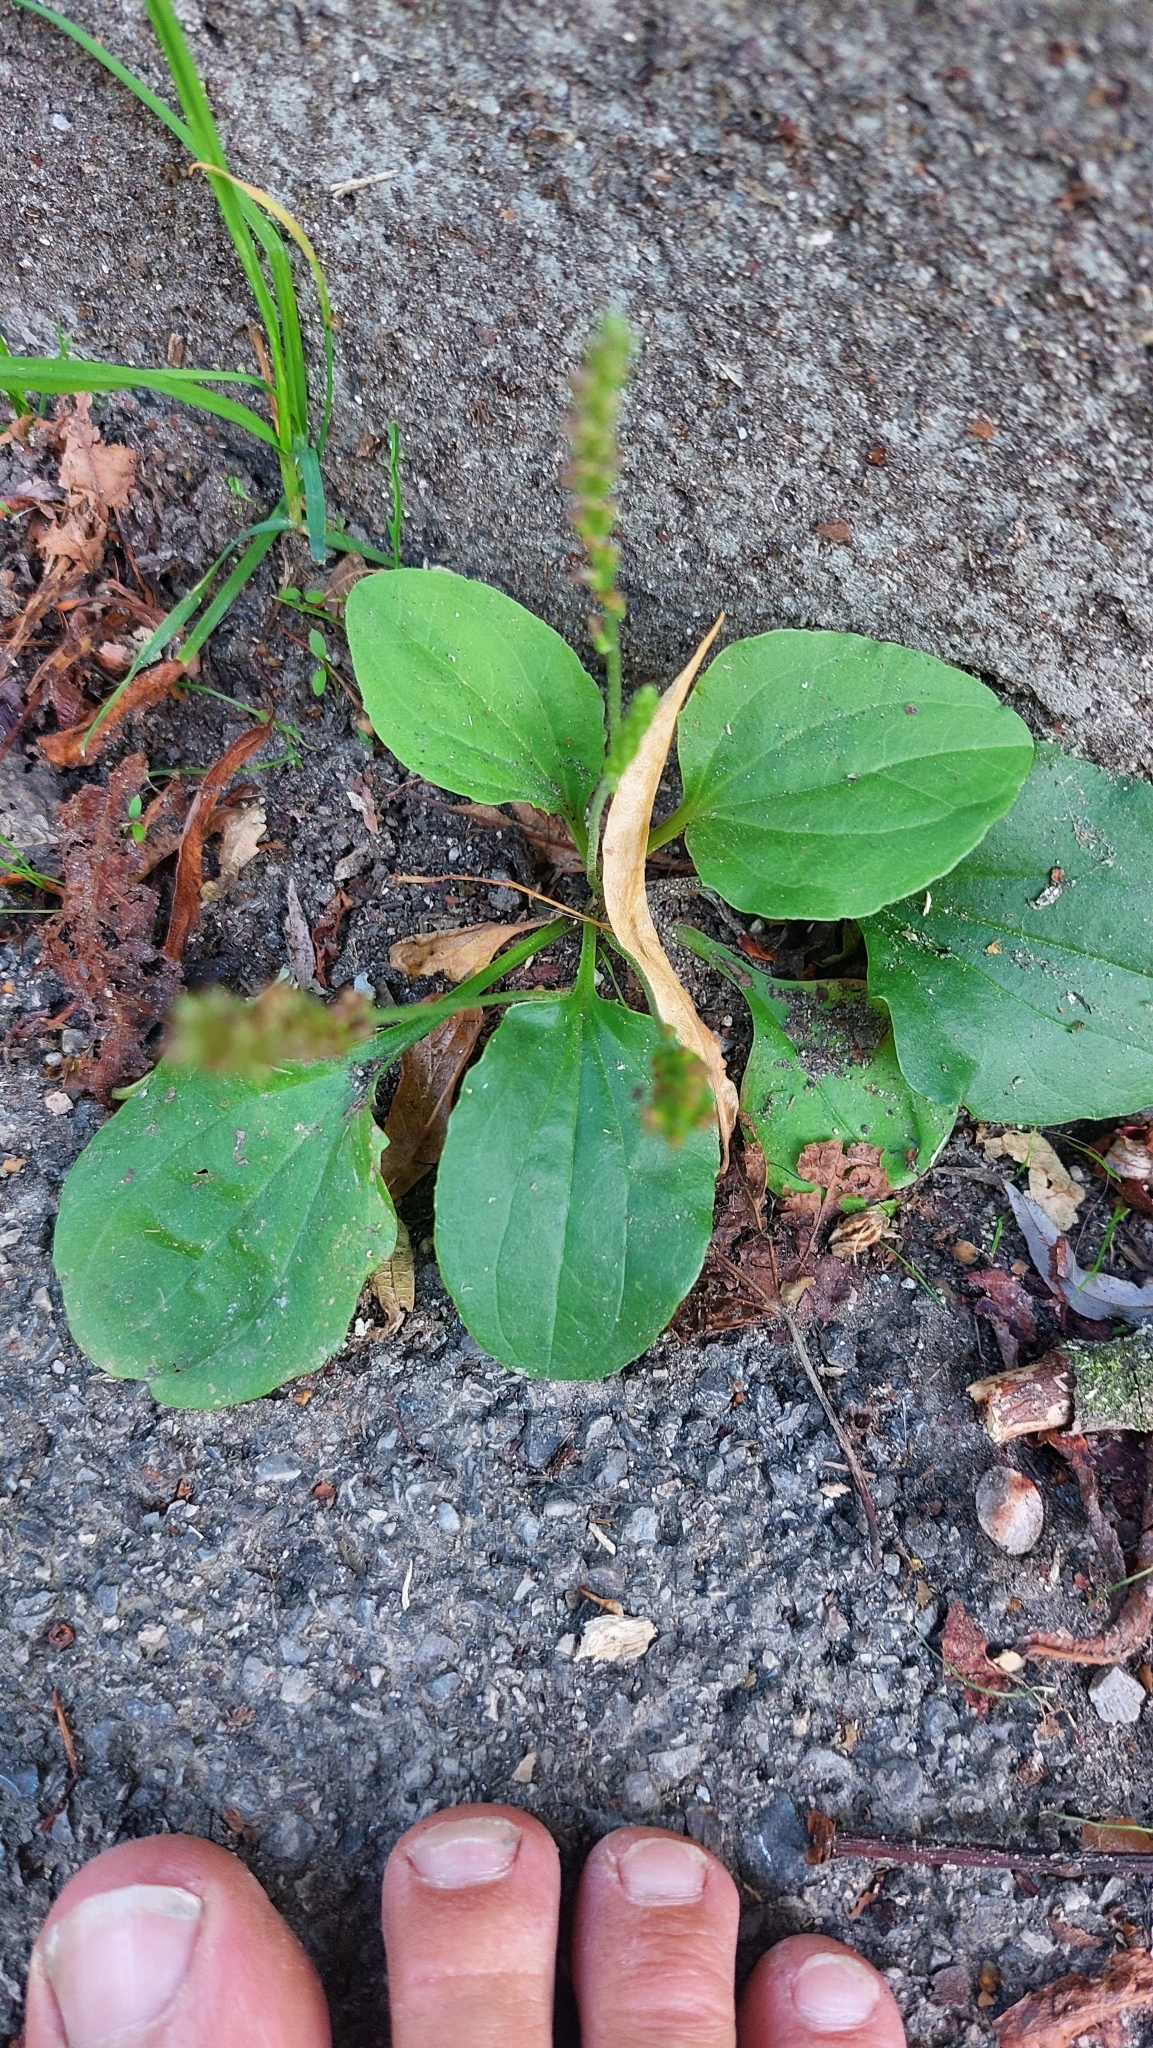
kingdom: Plantae
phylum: Tracheophyta
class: Magnoliopsida
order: Lamiales
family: Plantaginaceae
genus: Plantago
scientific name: Plantago major
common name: Common plantain
